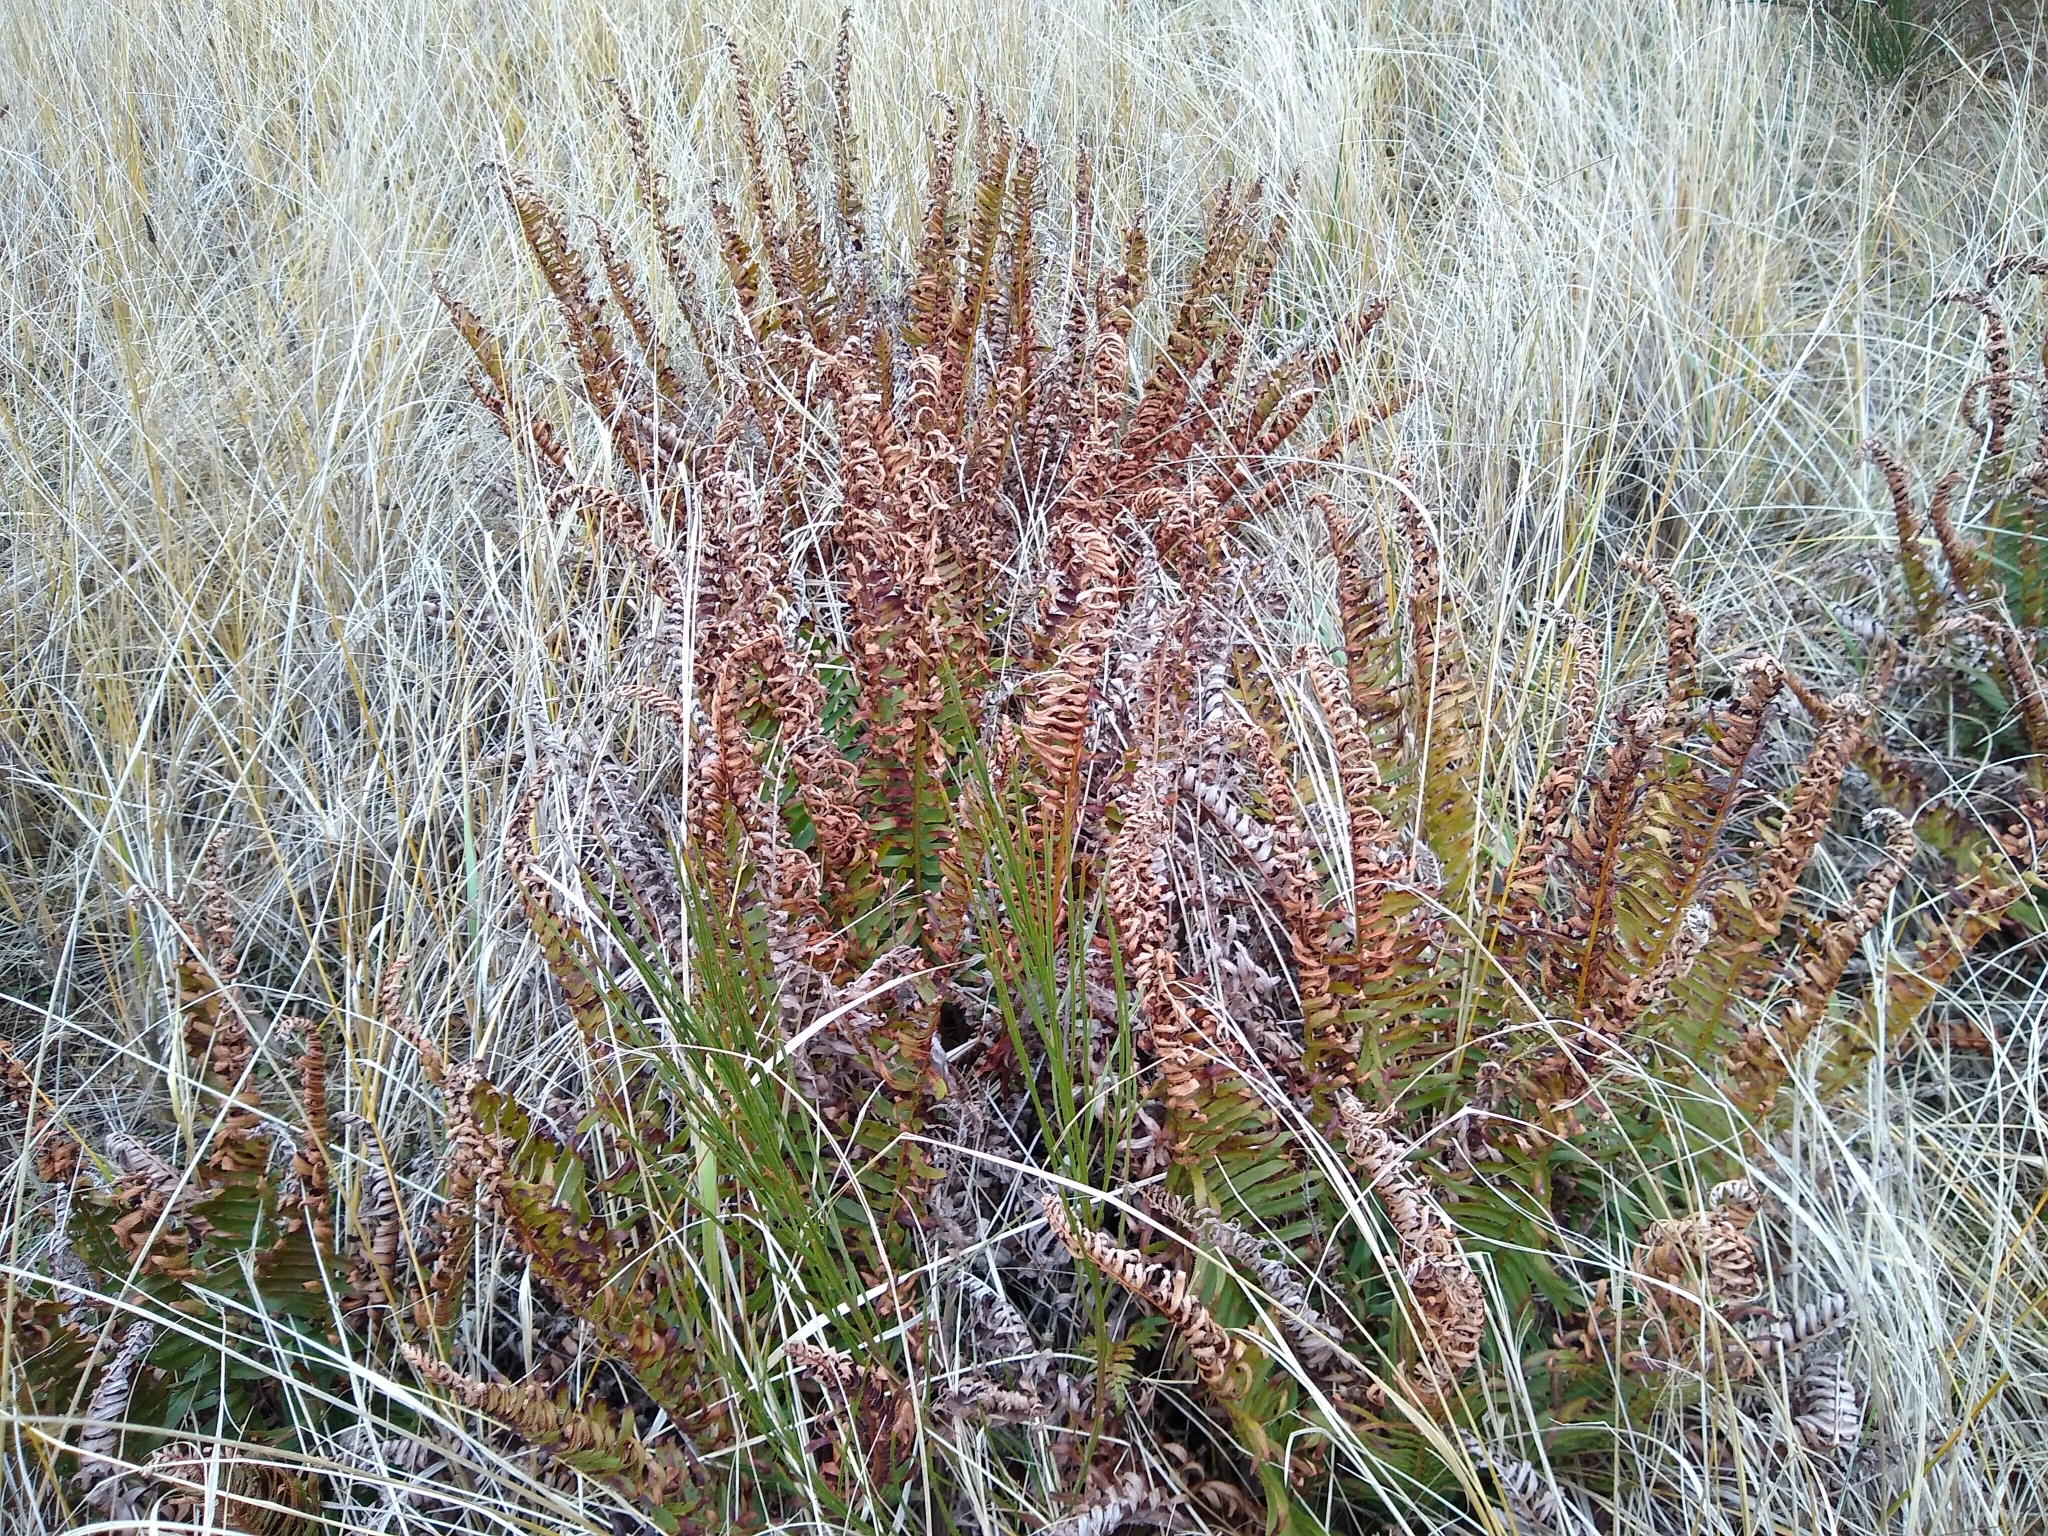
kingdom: Plantae
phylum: Tracheophyta
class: Polypodiopsida
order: Polypodiales
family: Dryopteridaceae
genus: Polystichum
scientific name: Polystichum munitum
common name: Western sword-fern
